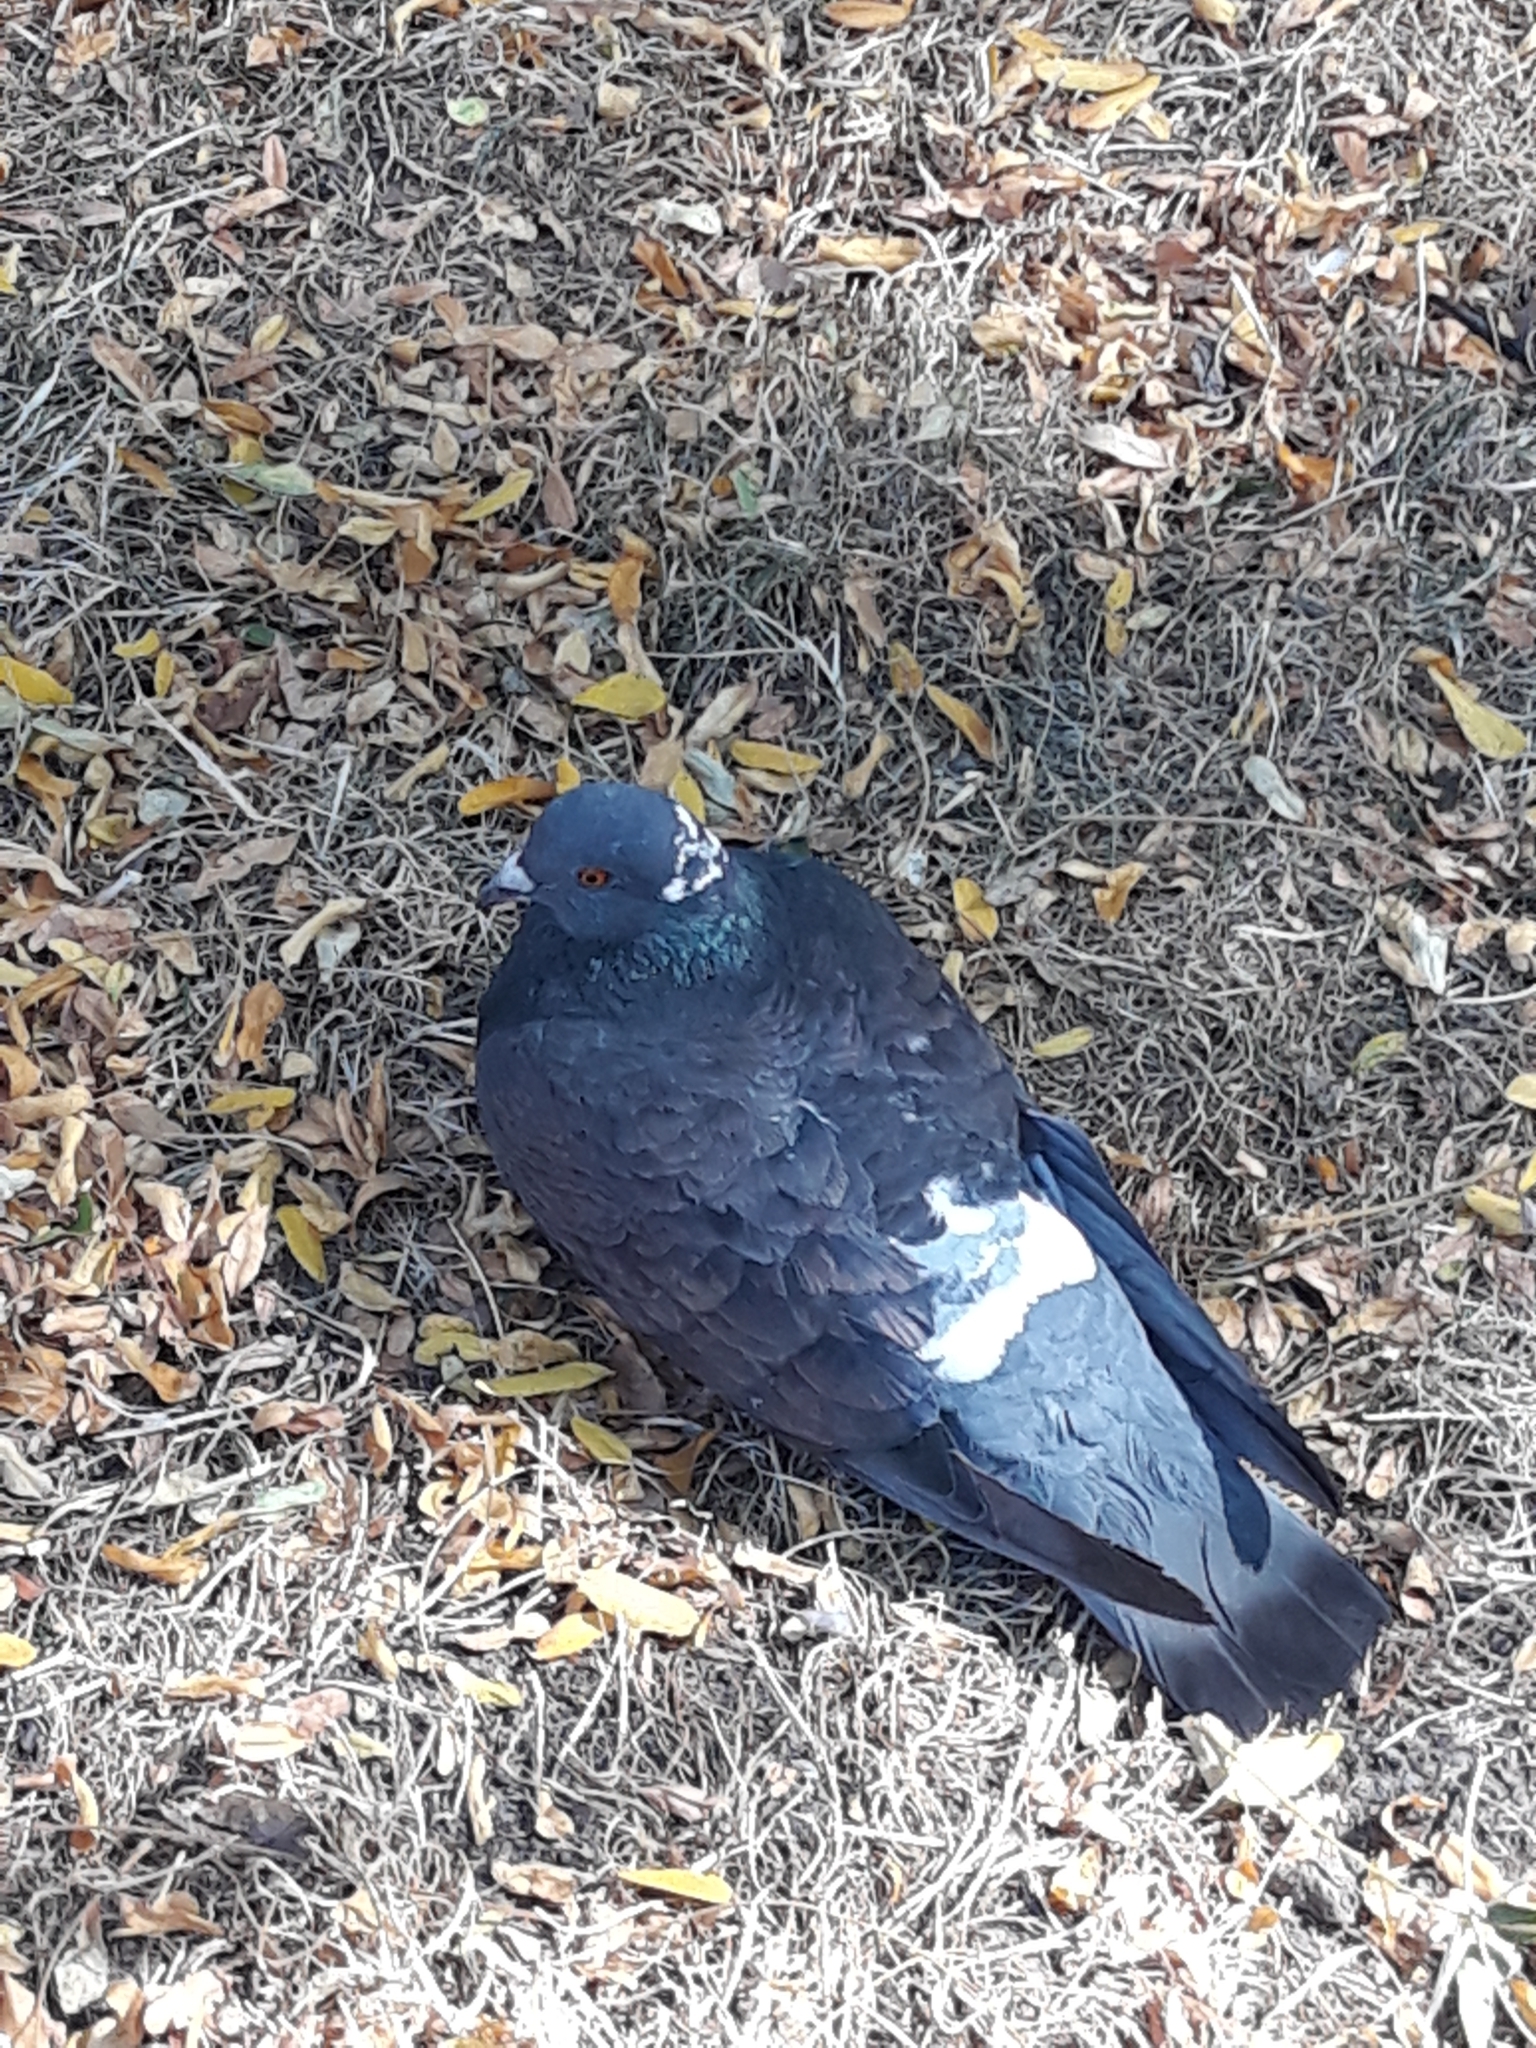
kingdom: Animalia
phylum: Chordata
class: Aves
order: Columbiformes
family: Columbidae
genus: Columba
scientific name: Columba livia
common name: Rock pigeon
